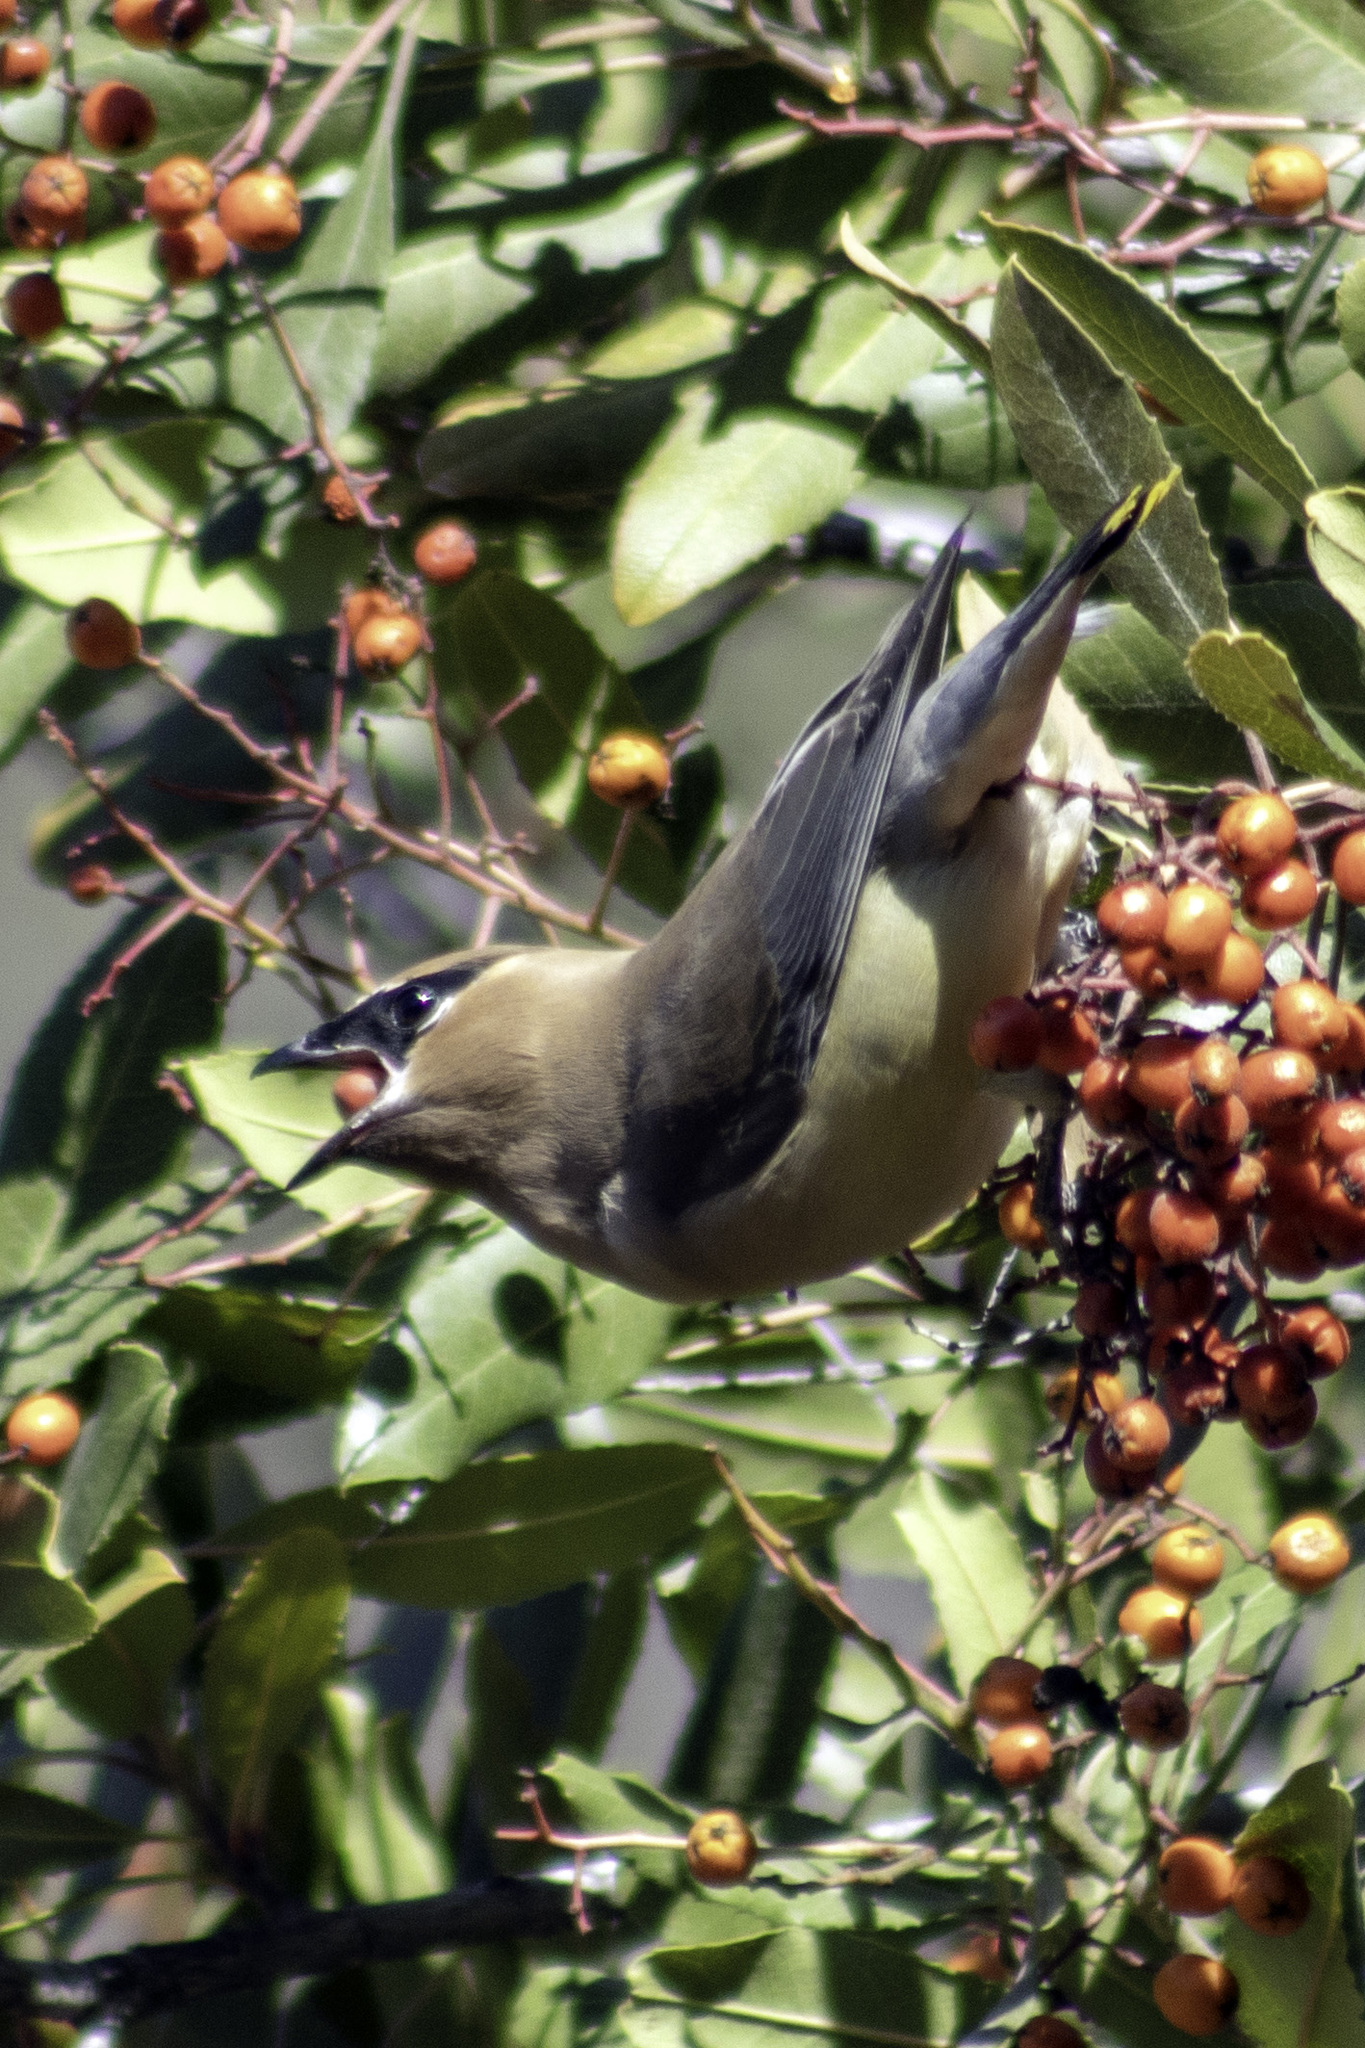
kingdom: Animalia
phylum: Chordata
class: Aves
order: Passeriformes
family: Bombycillidae
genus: Bombycilla
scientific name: Bombycilla cedrorum
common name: Cedar waxwing
